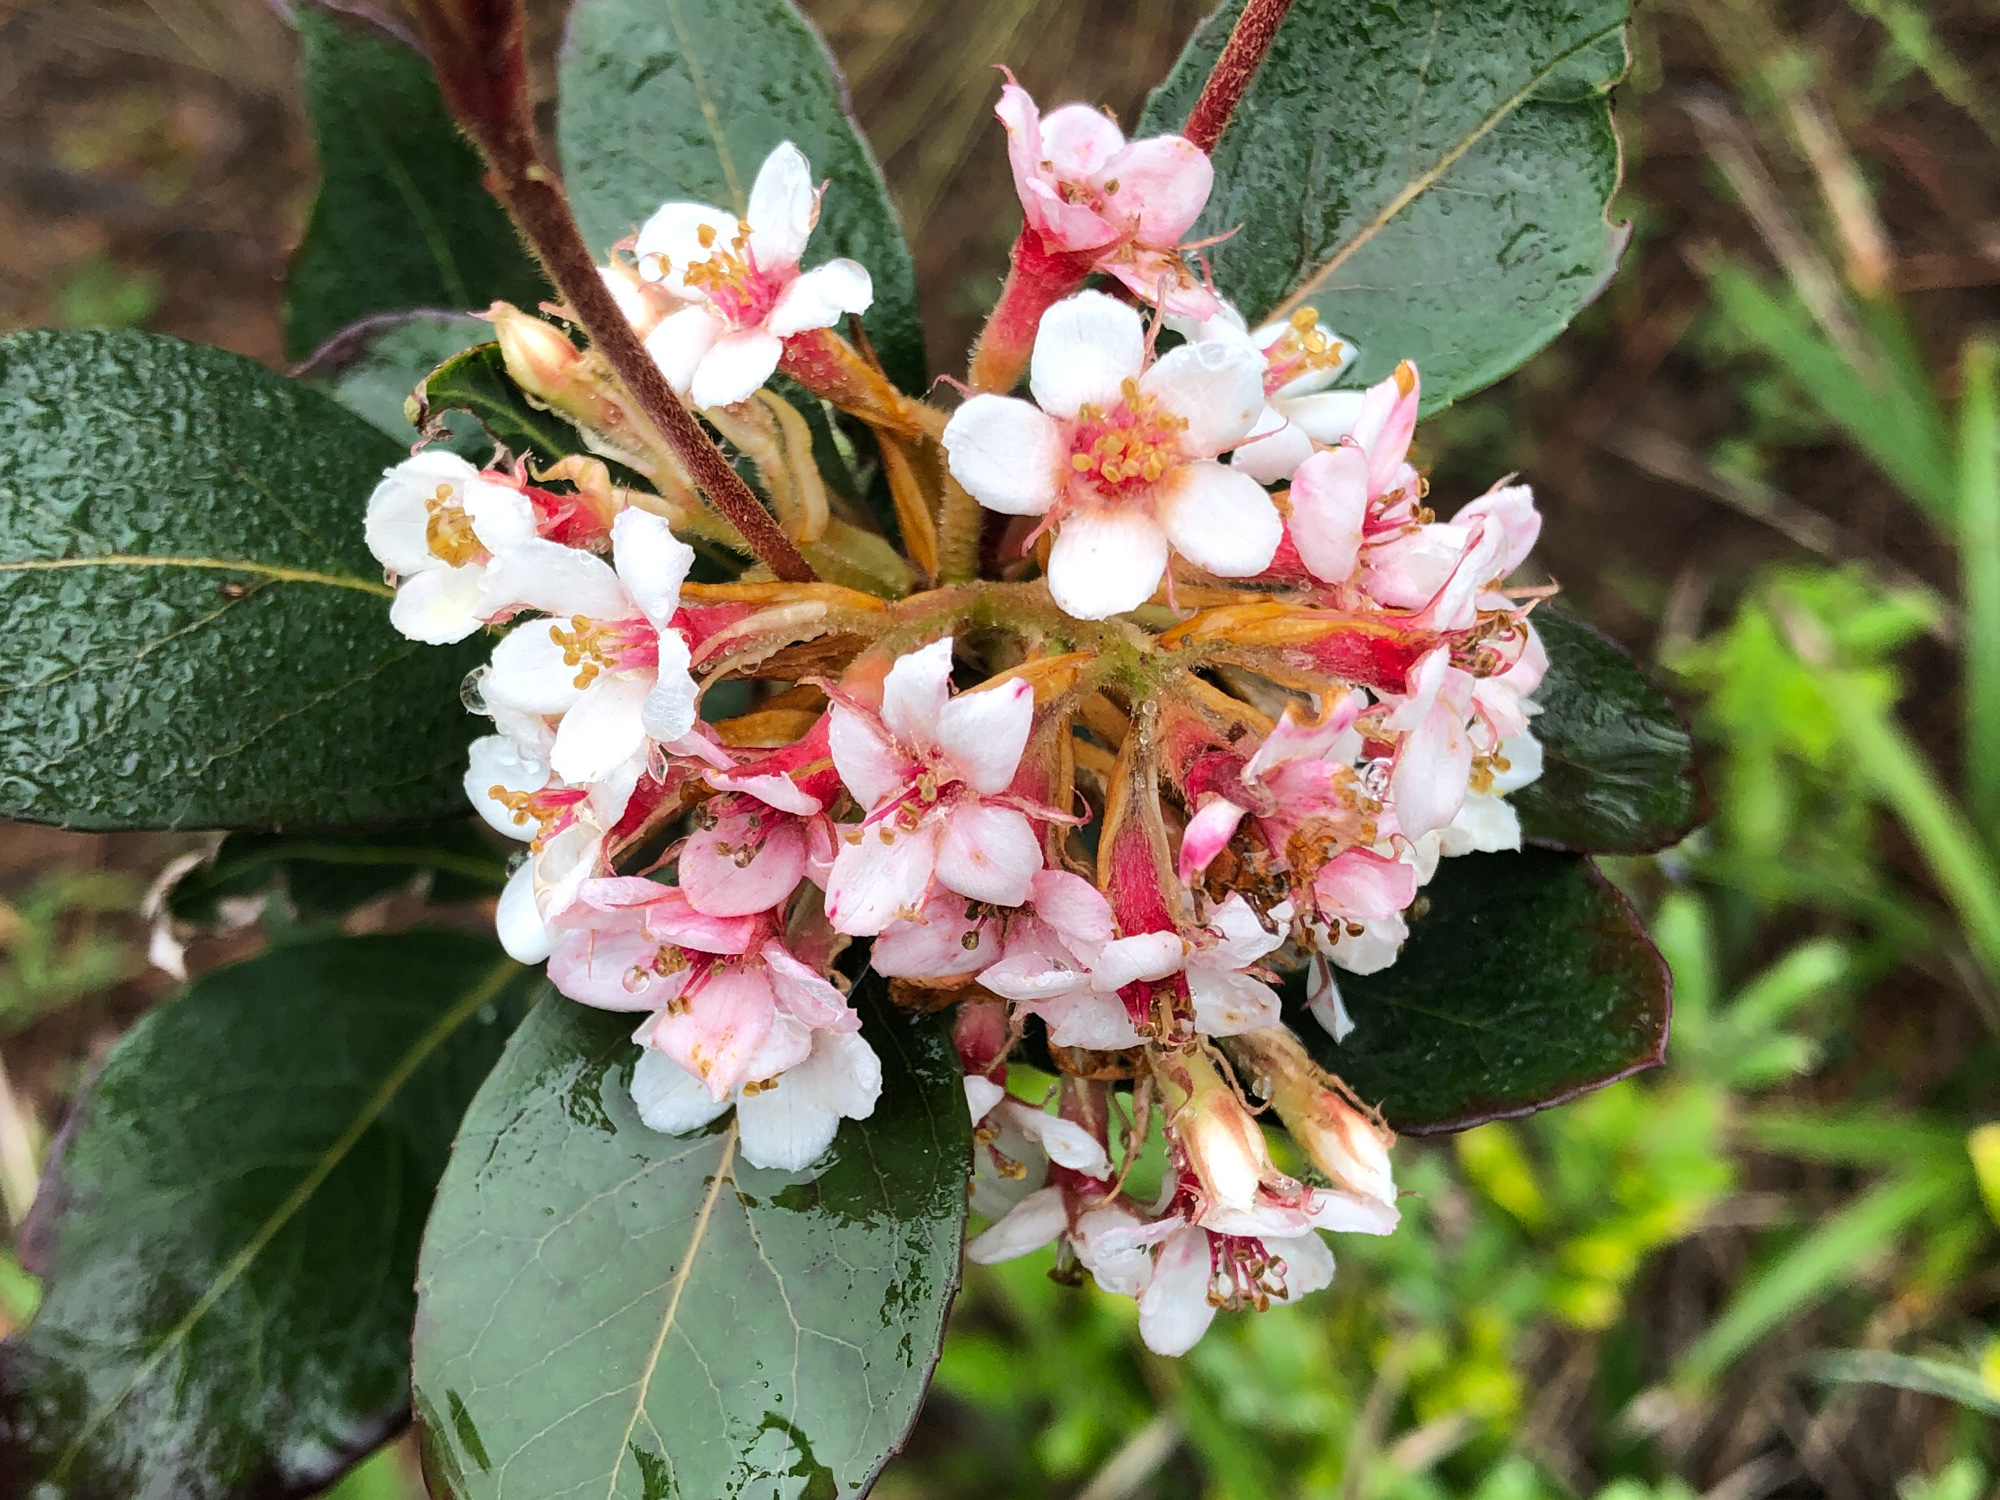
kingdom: Plantae
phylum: Tracheophyta
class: Magnoliopsida
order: Rosales
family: Rosaceae
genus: Rhaphiolepis
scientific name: Rhaphiolepis indica
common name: India-hawthorn
